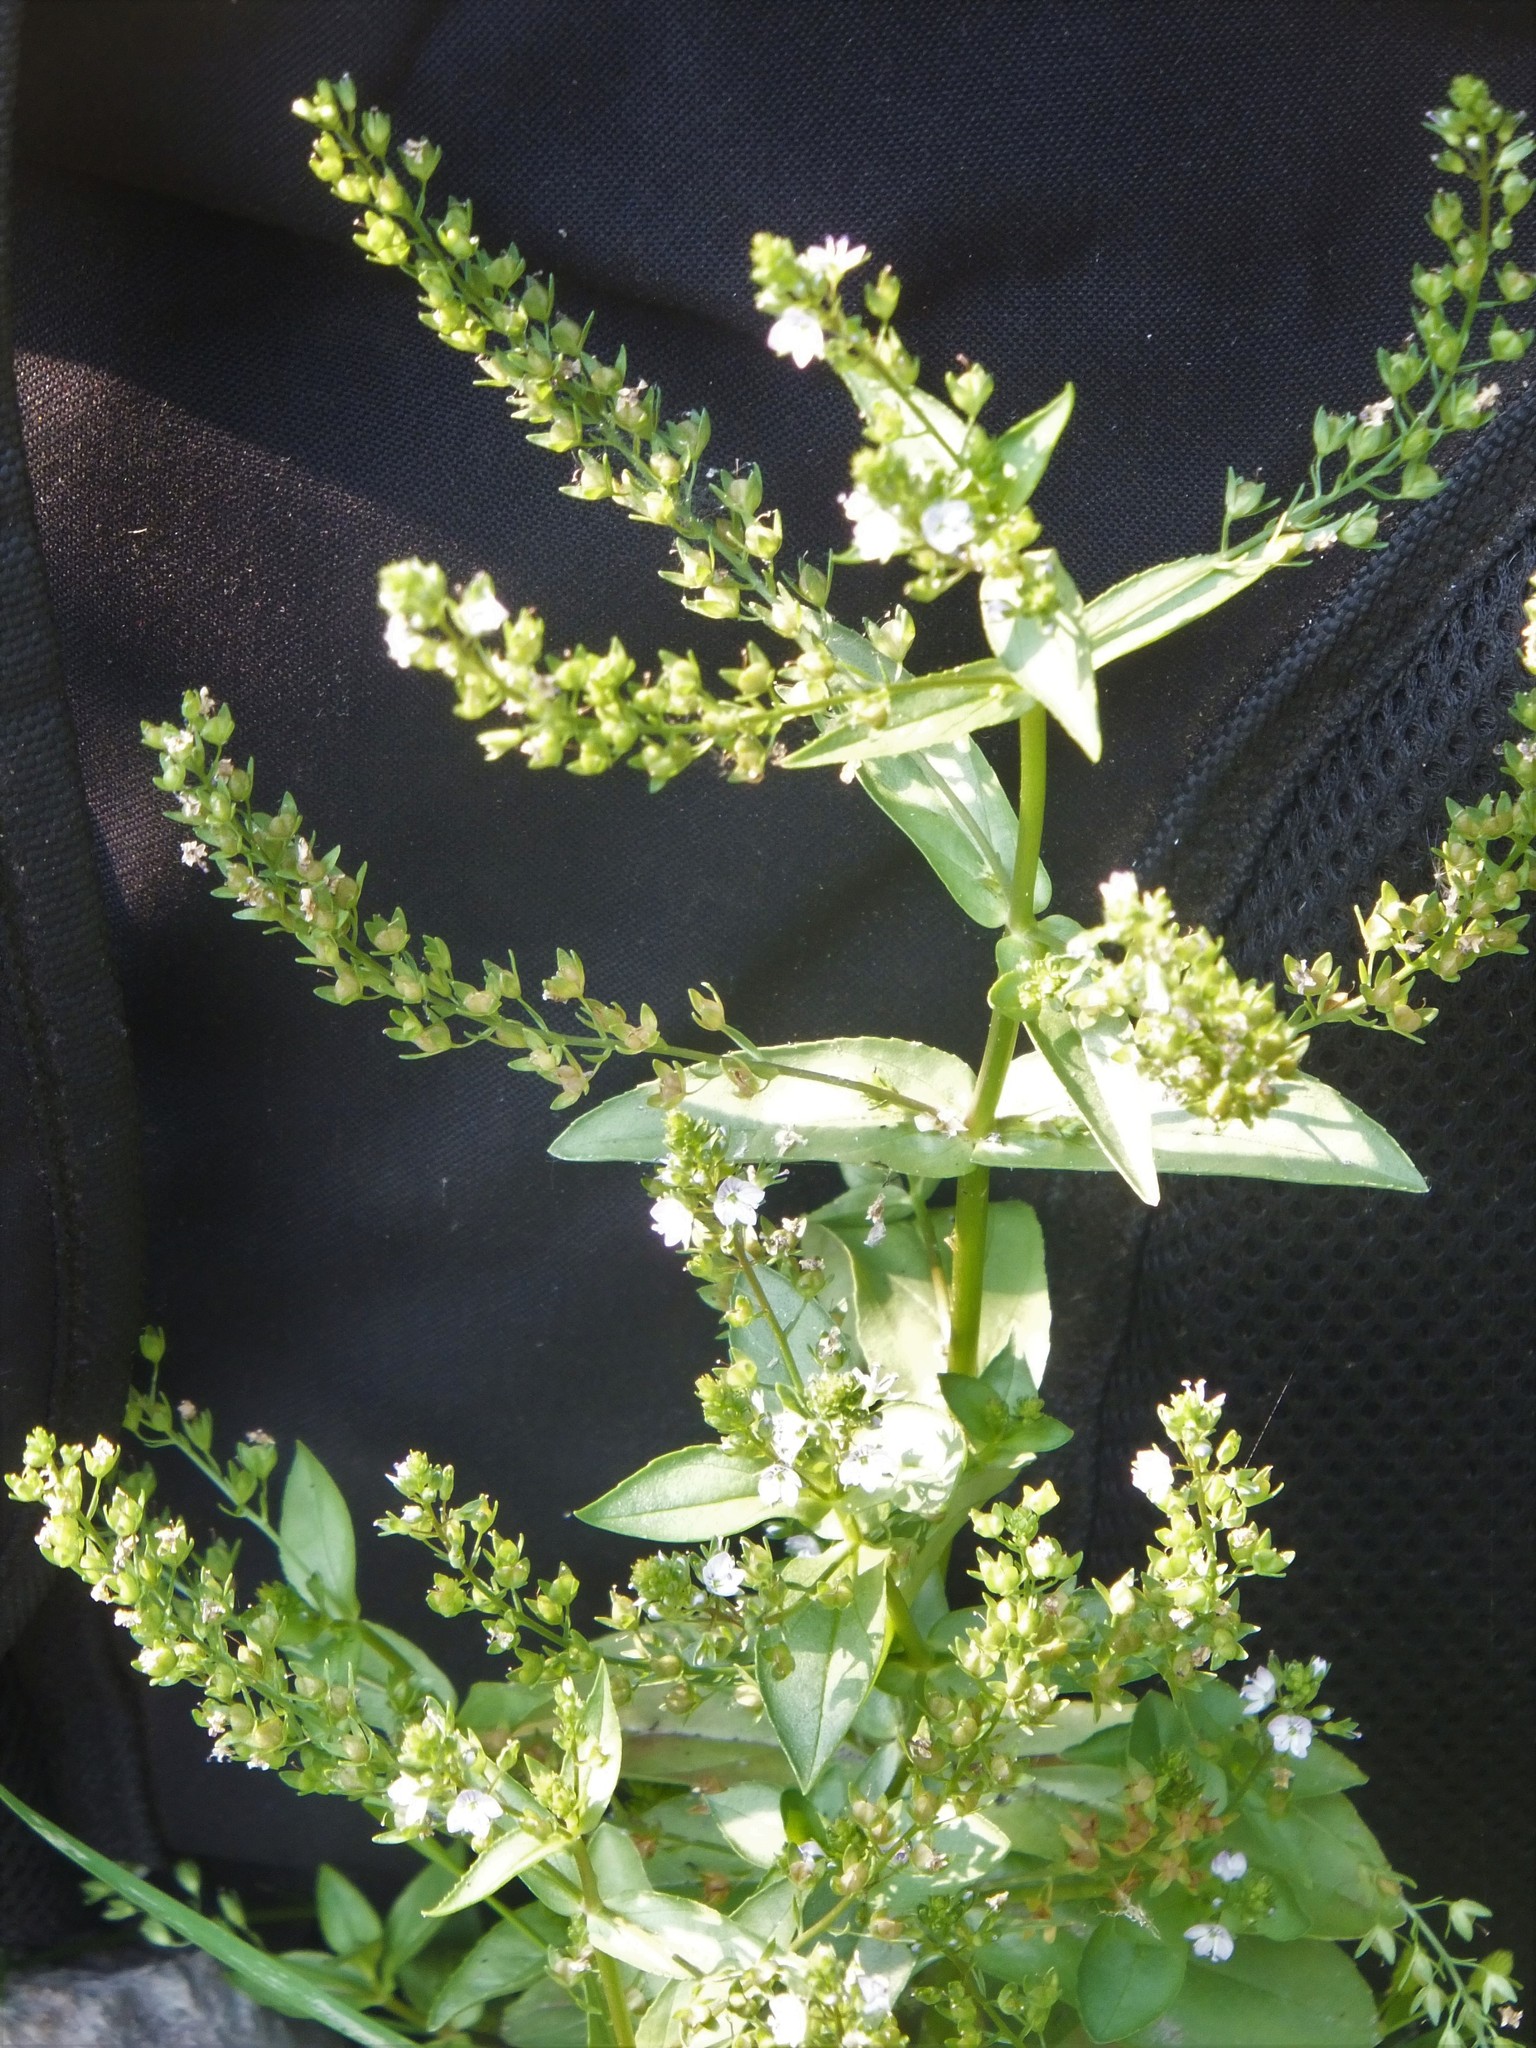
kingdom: Plantae
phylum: Tracheophyta
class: Magnoliopsida
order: Lamiales
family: Plantaginaceae
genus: Veronica
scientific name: Veronica anagallis-aquatica
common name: Water speedwell
